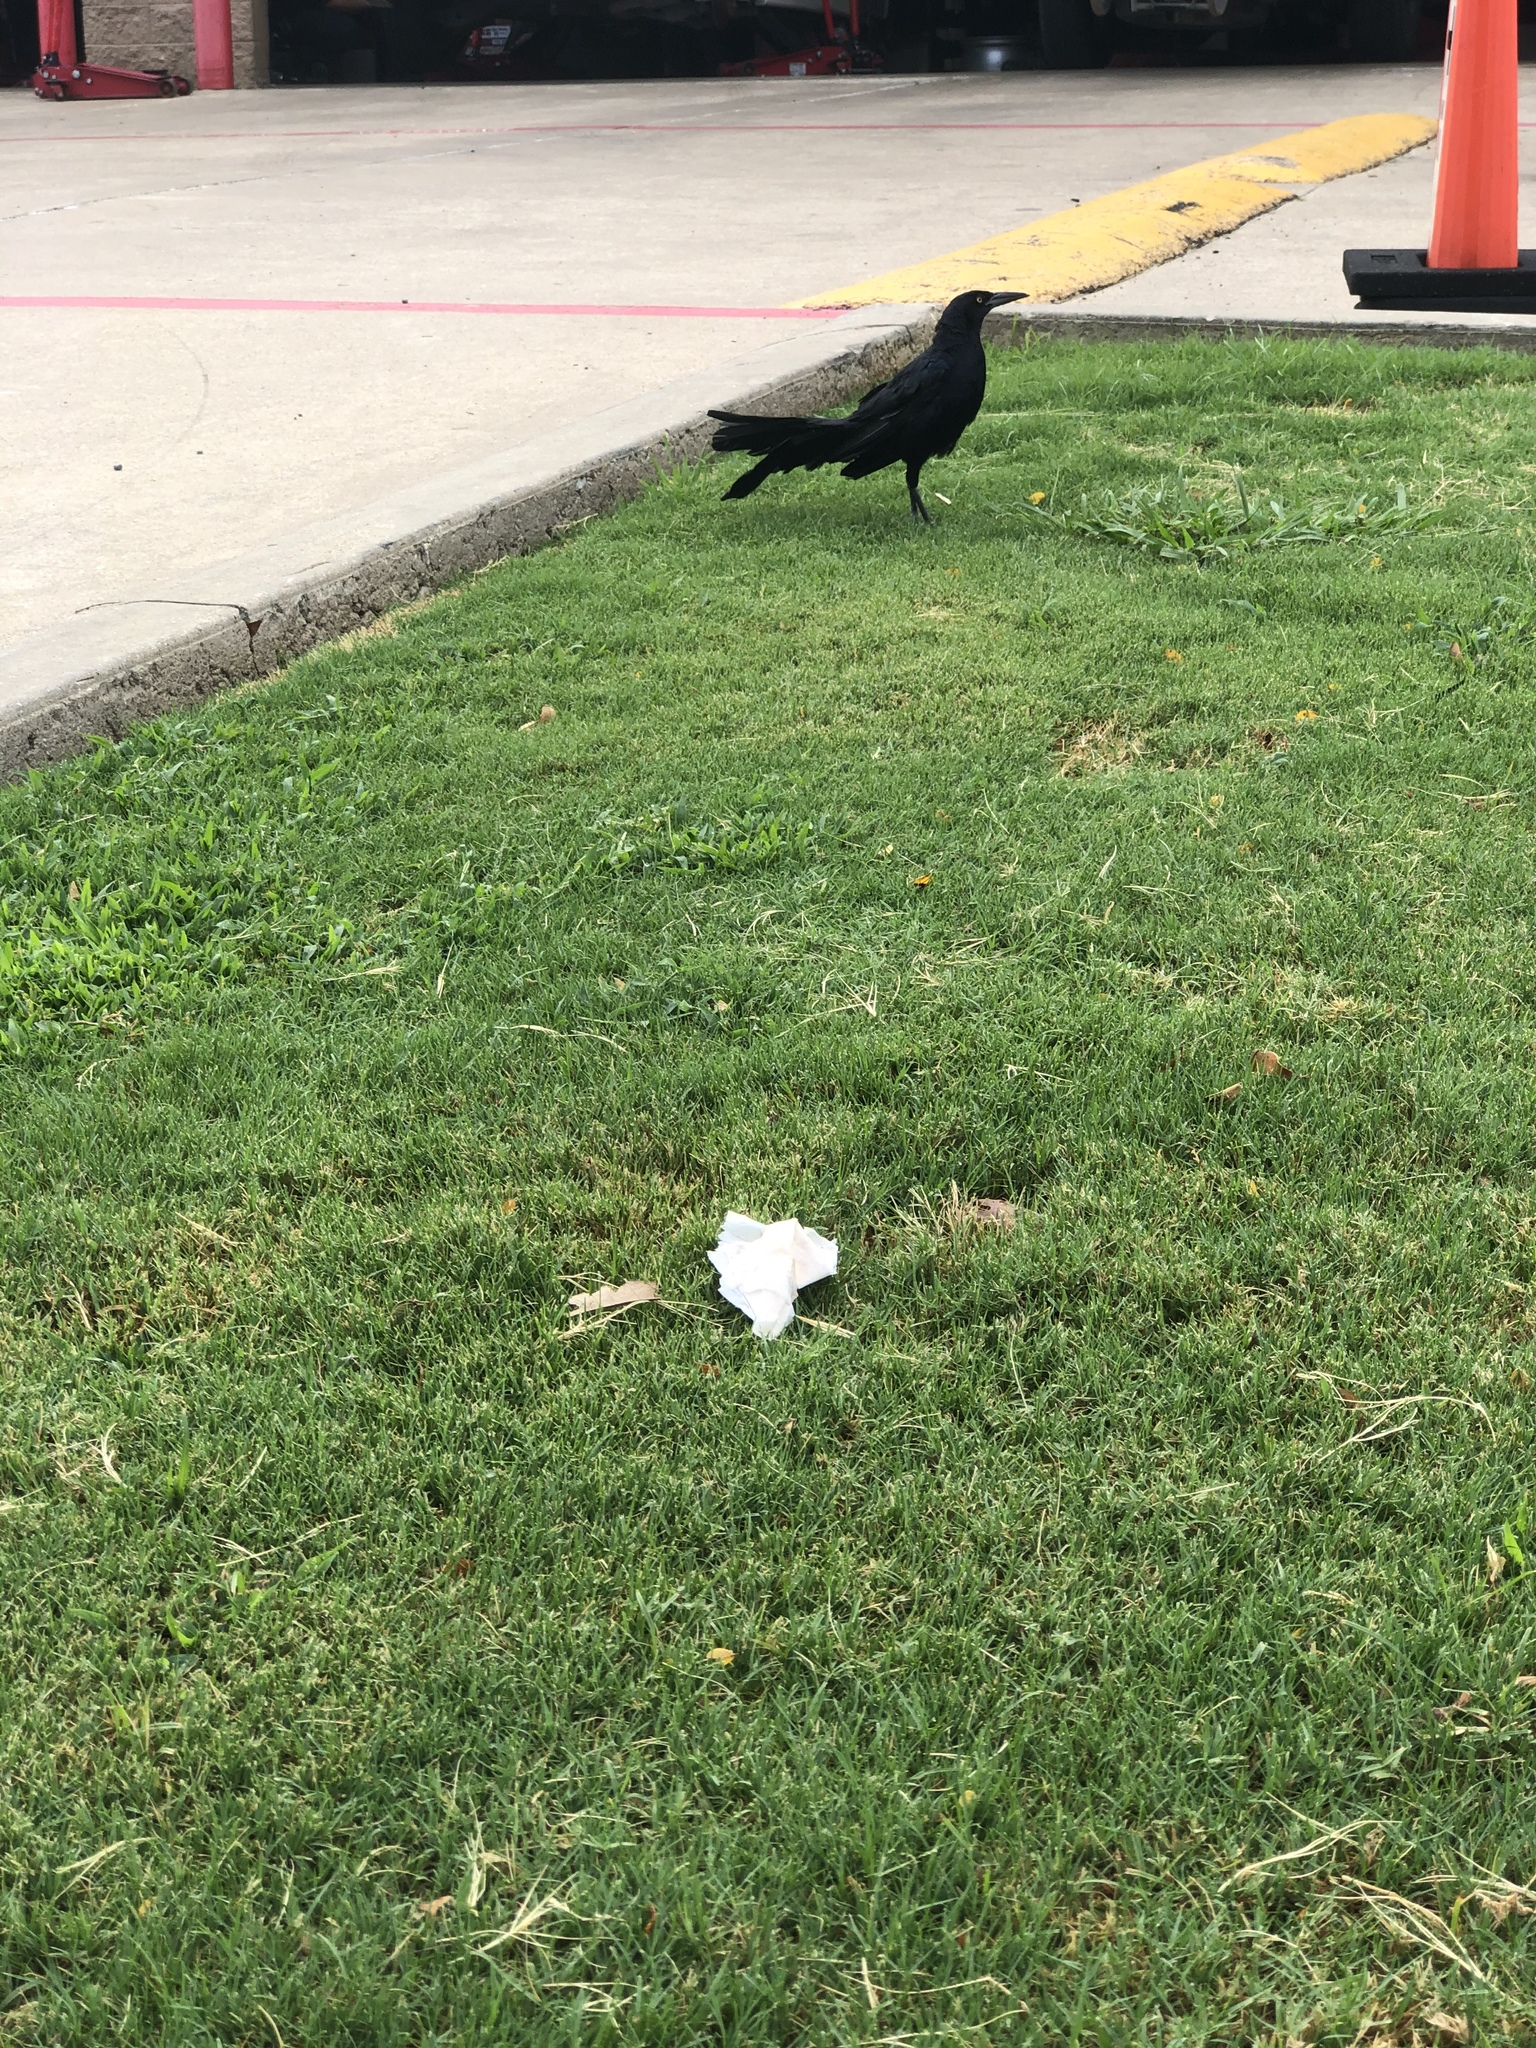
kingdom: Animalia
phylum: Chordata
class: Aves
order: Passeriformes
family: Icteridae
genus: Quiscalus
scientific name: Quiscalus mexicanus
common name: Great-tailed grackle
